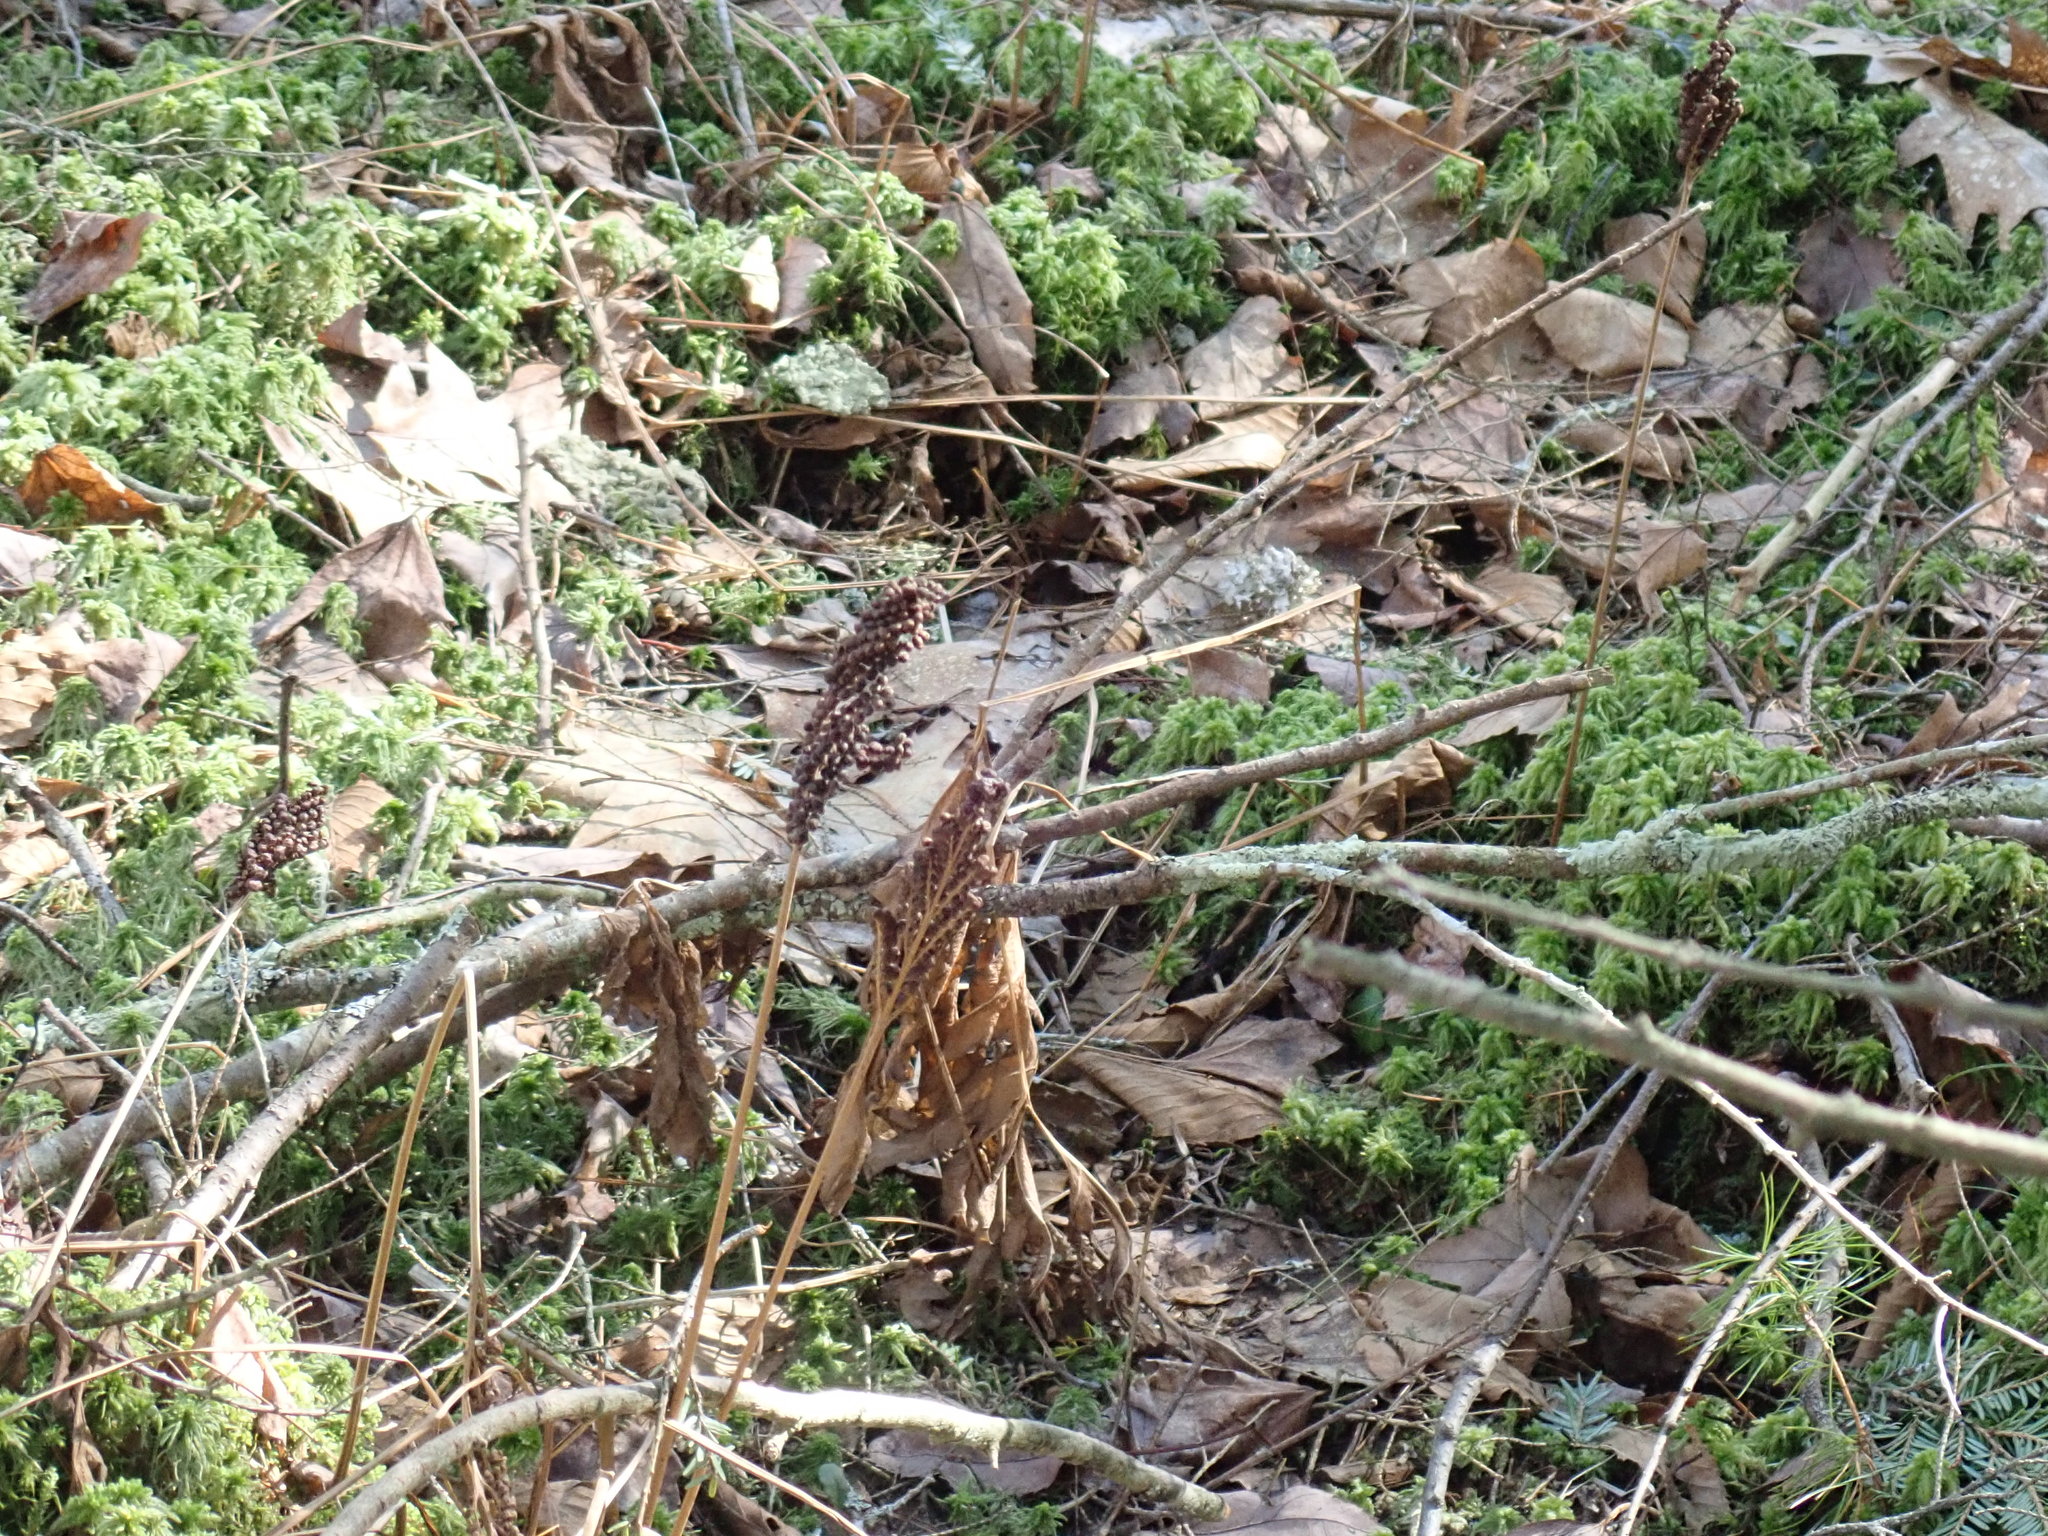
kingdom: Plantae
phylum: Tracheophyta
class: Polypodiopsida
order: Polypodiales
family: Onocleaceae
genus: Onoclea
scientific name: Onoclea sensibilis
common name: Sensitive fern
